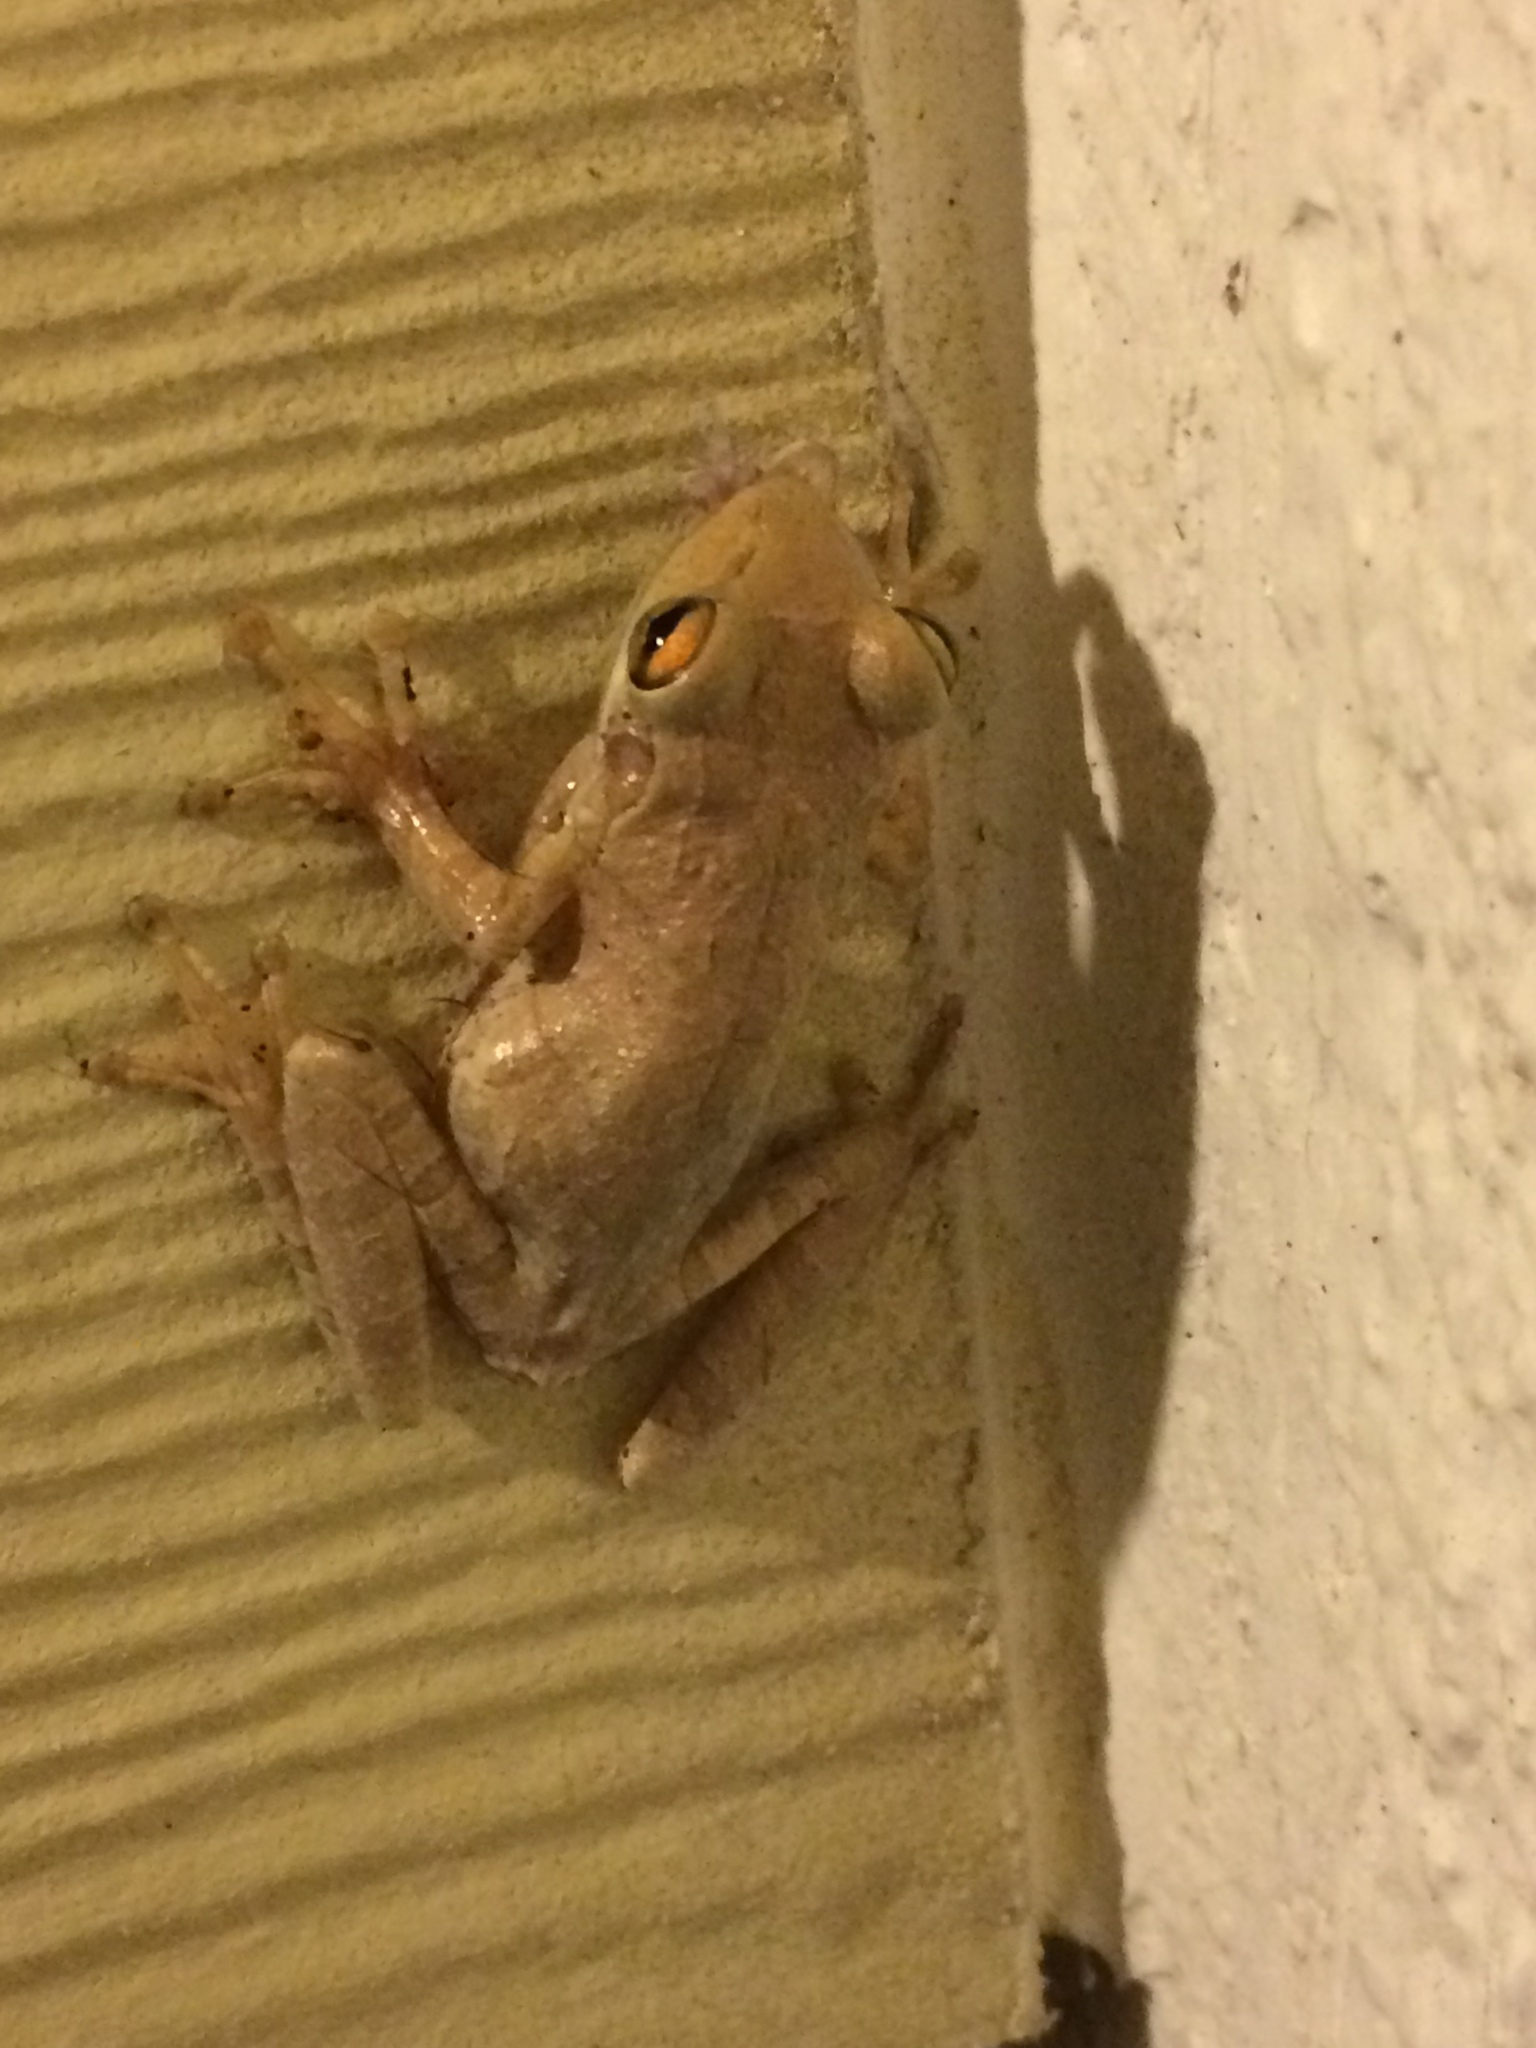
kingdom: Animalia
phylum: Chordata
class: Amphibia
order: Anura
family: Hylidae
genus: Osteopilus
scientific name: Osteopilus septentrionalis
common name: Cuban treefrog
